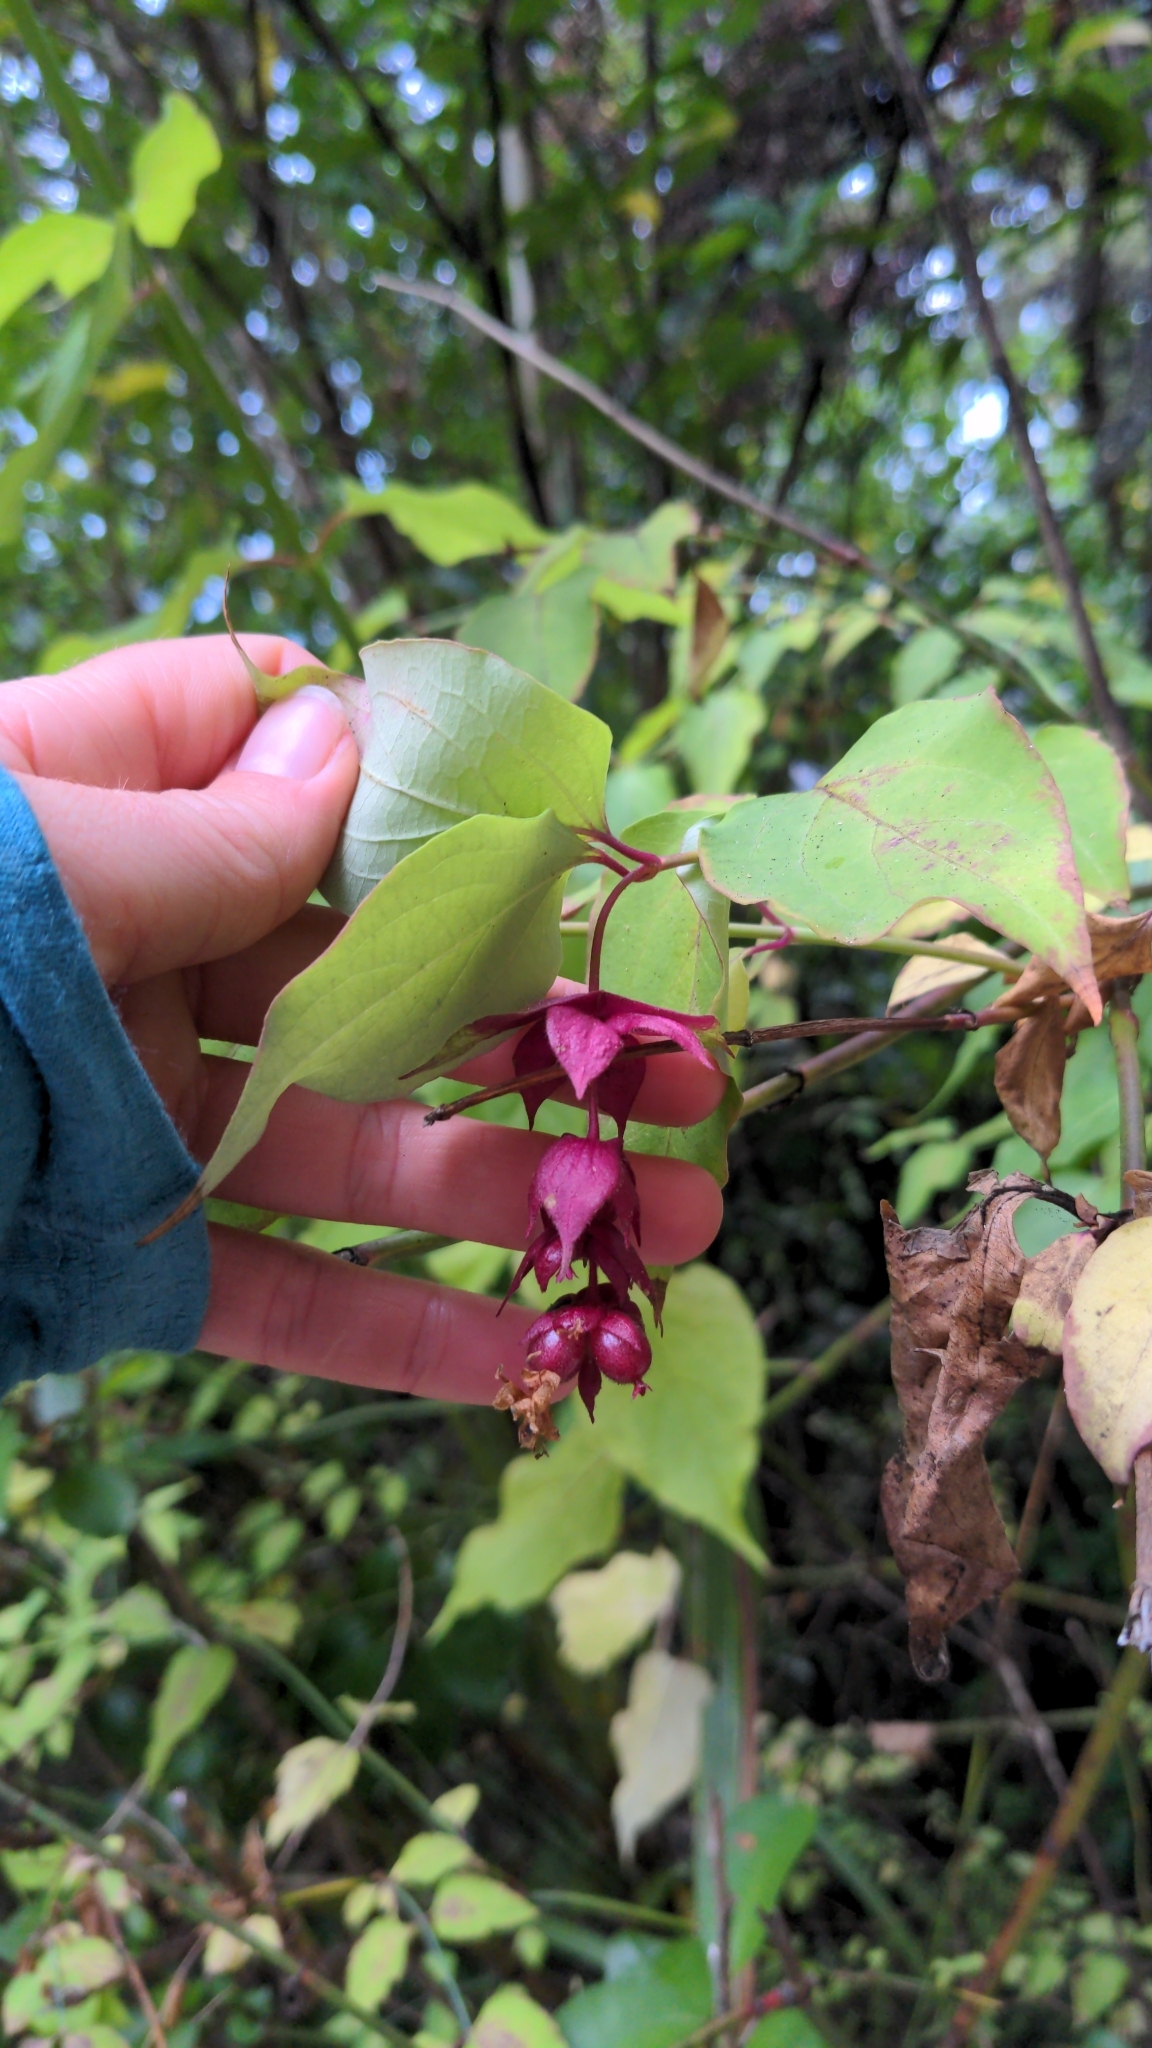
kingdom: Plantae
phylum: Tracheophyta
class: Magnoliopsida
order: Dipsacales
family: Caprifoliaceae
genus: Leycesteria
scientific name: Leycesteria formosa
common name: Himalayan honeysuckle
